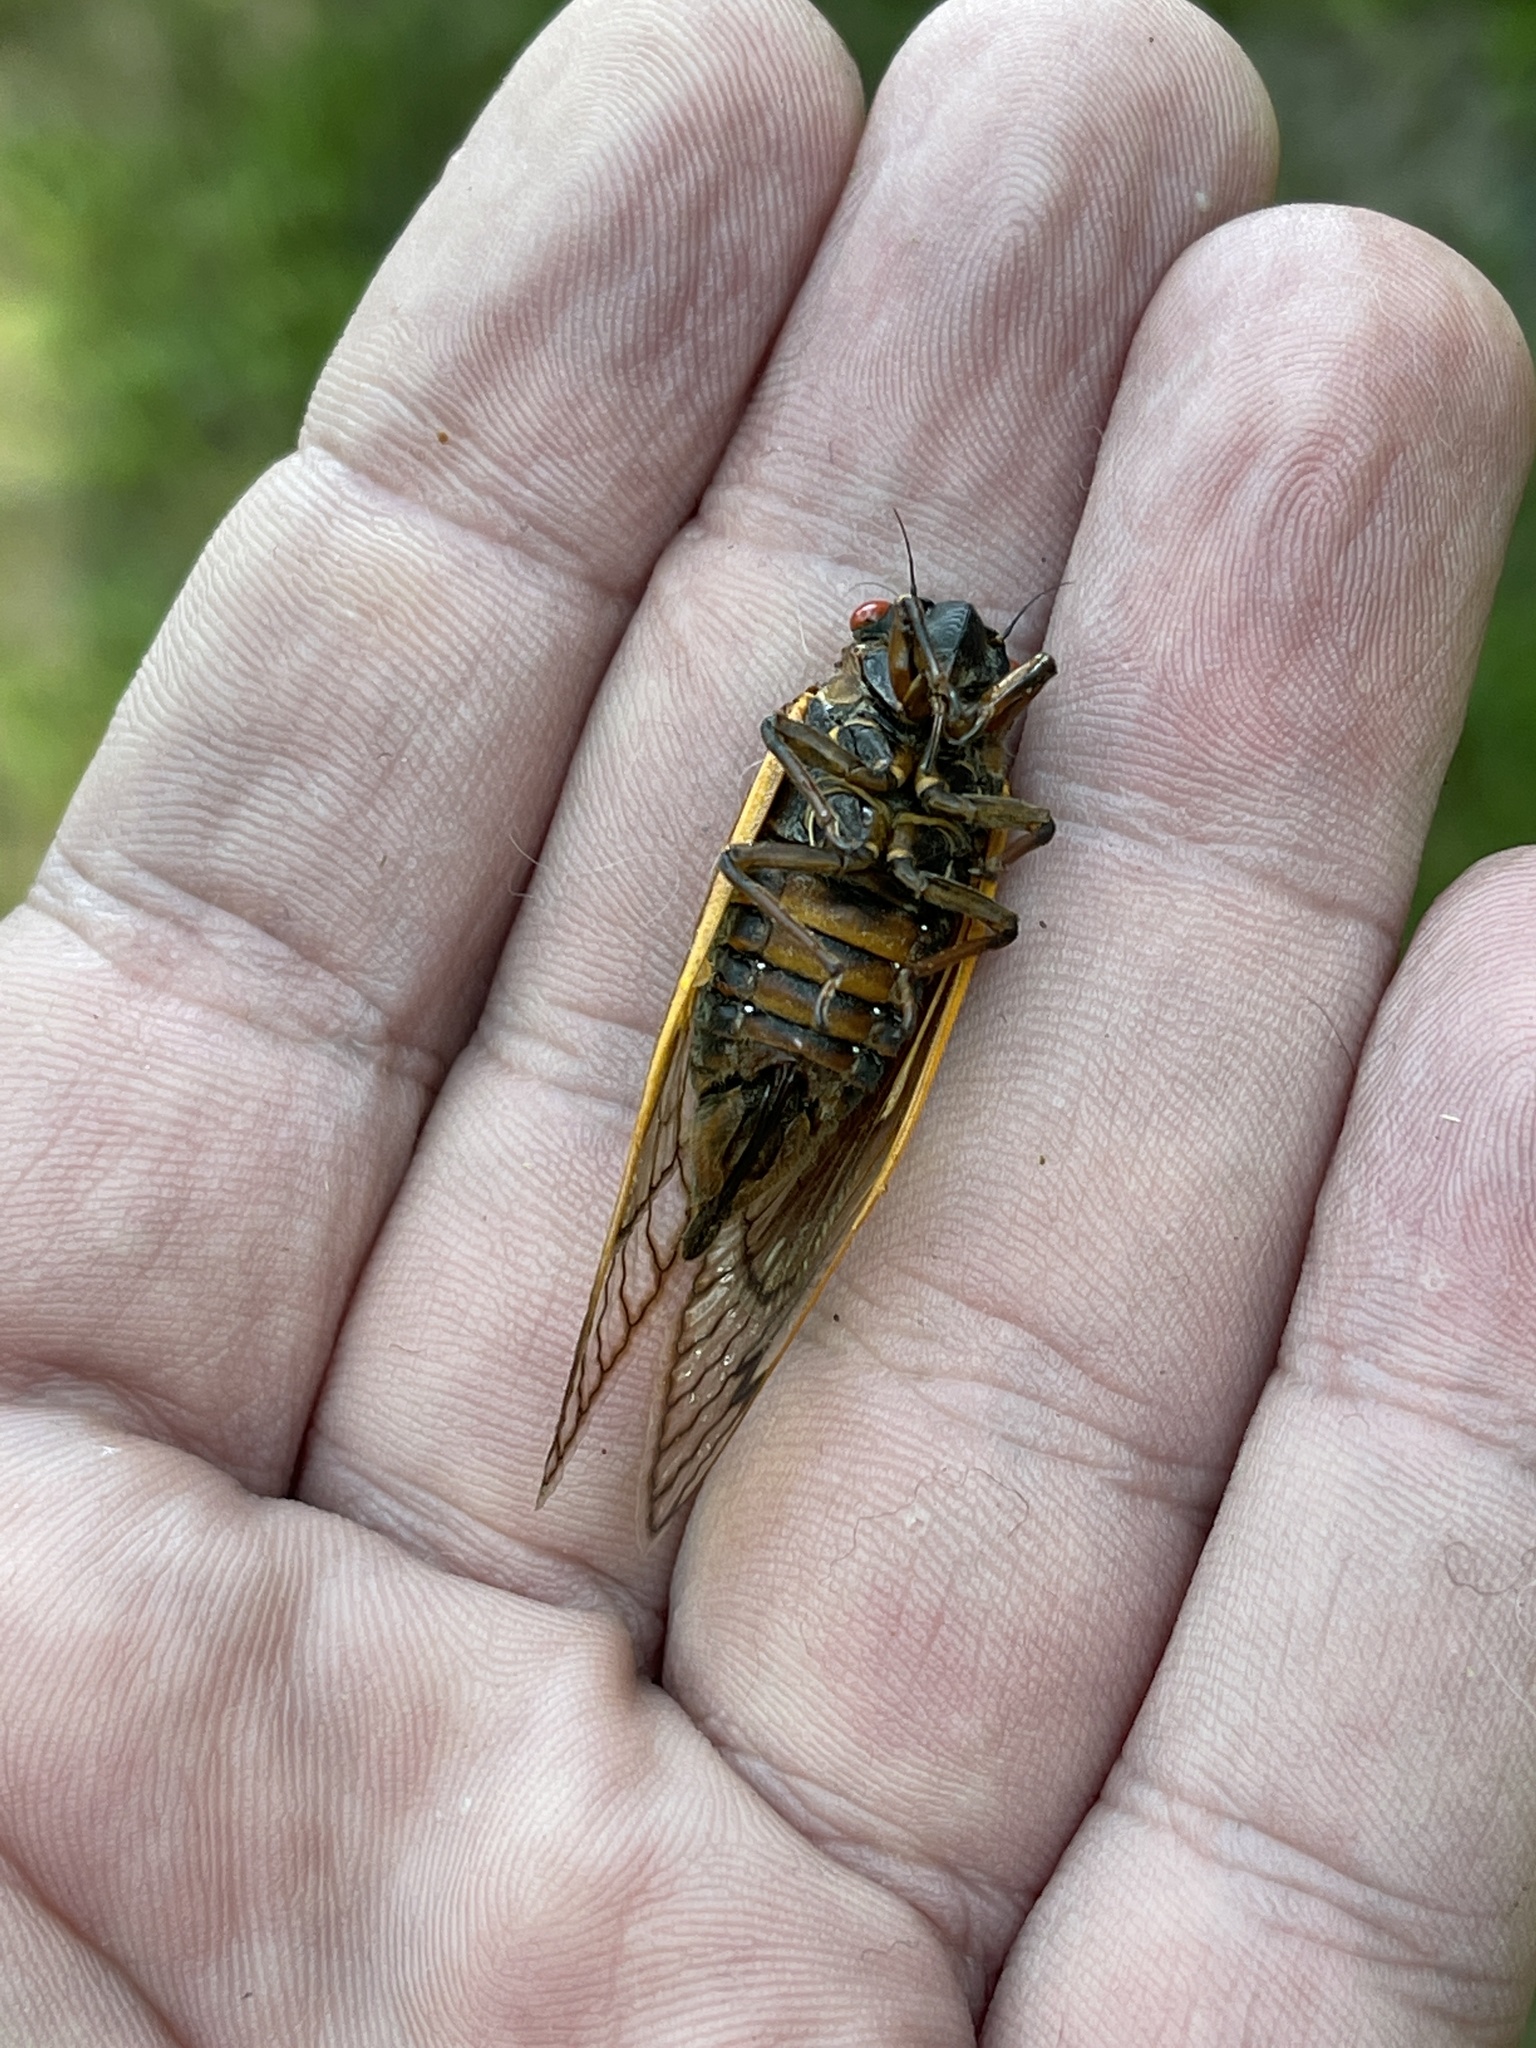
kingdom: Animalia
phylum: Arthropoda
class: Insecta
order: Hemiptera
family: Cicadidae
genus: Magicicada
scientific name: Magicicada septendecim
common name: Periodical cicada
